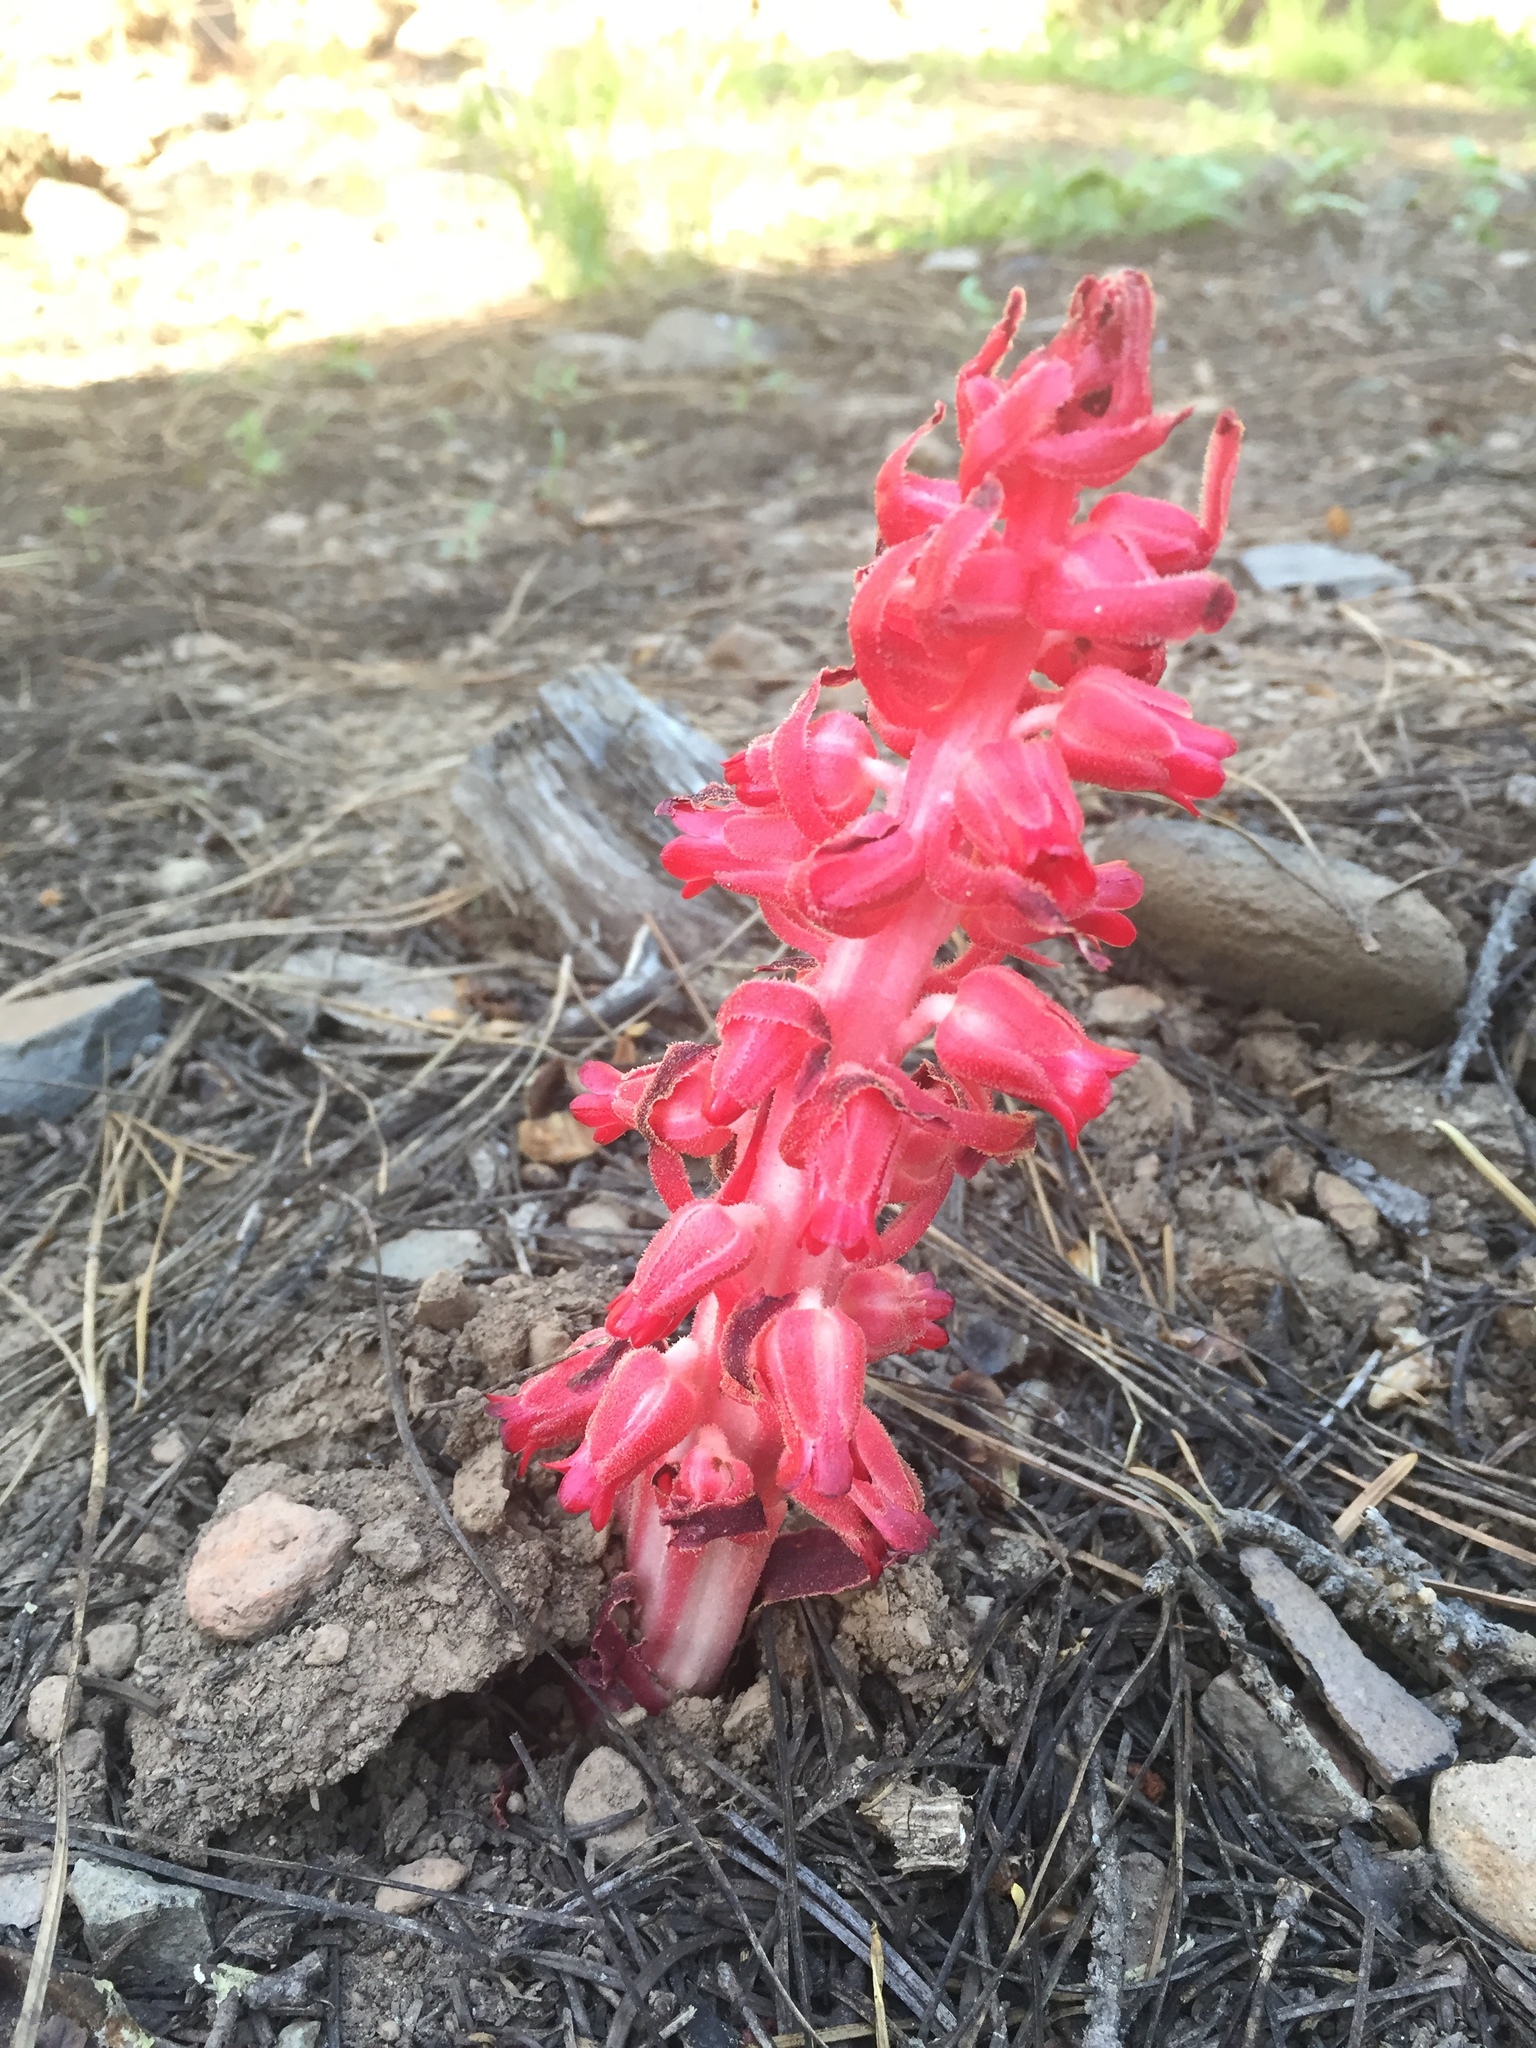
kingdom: Plantae
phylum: Tracheophyta
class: Magnoliopsida
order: Ericales
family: Ericaceae
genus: Sarcodes
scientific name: Sarcodes sanguinea
